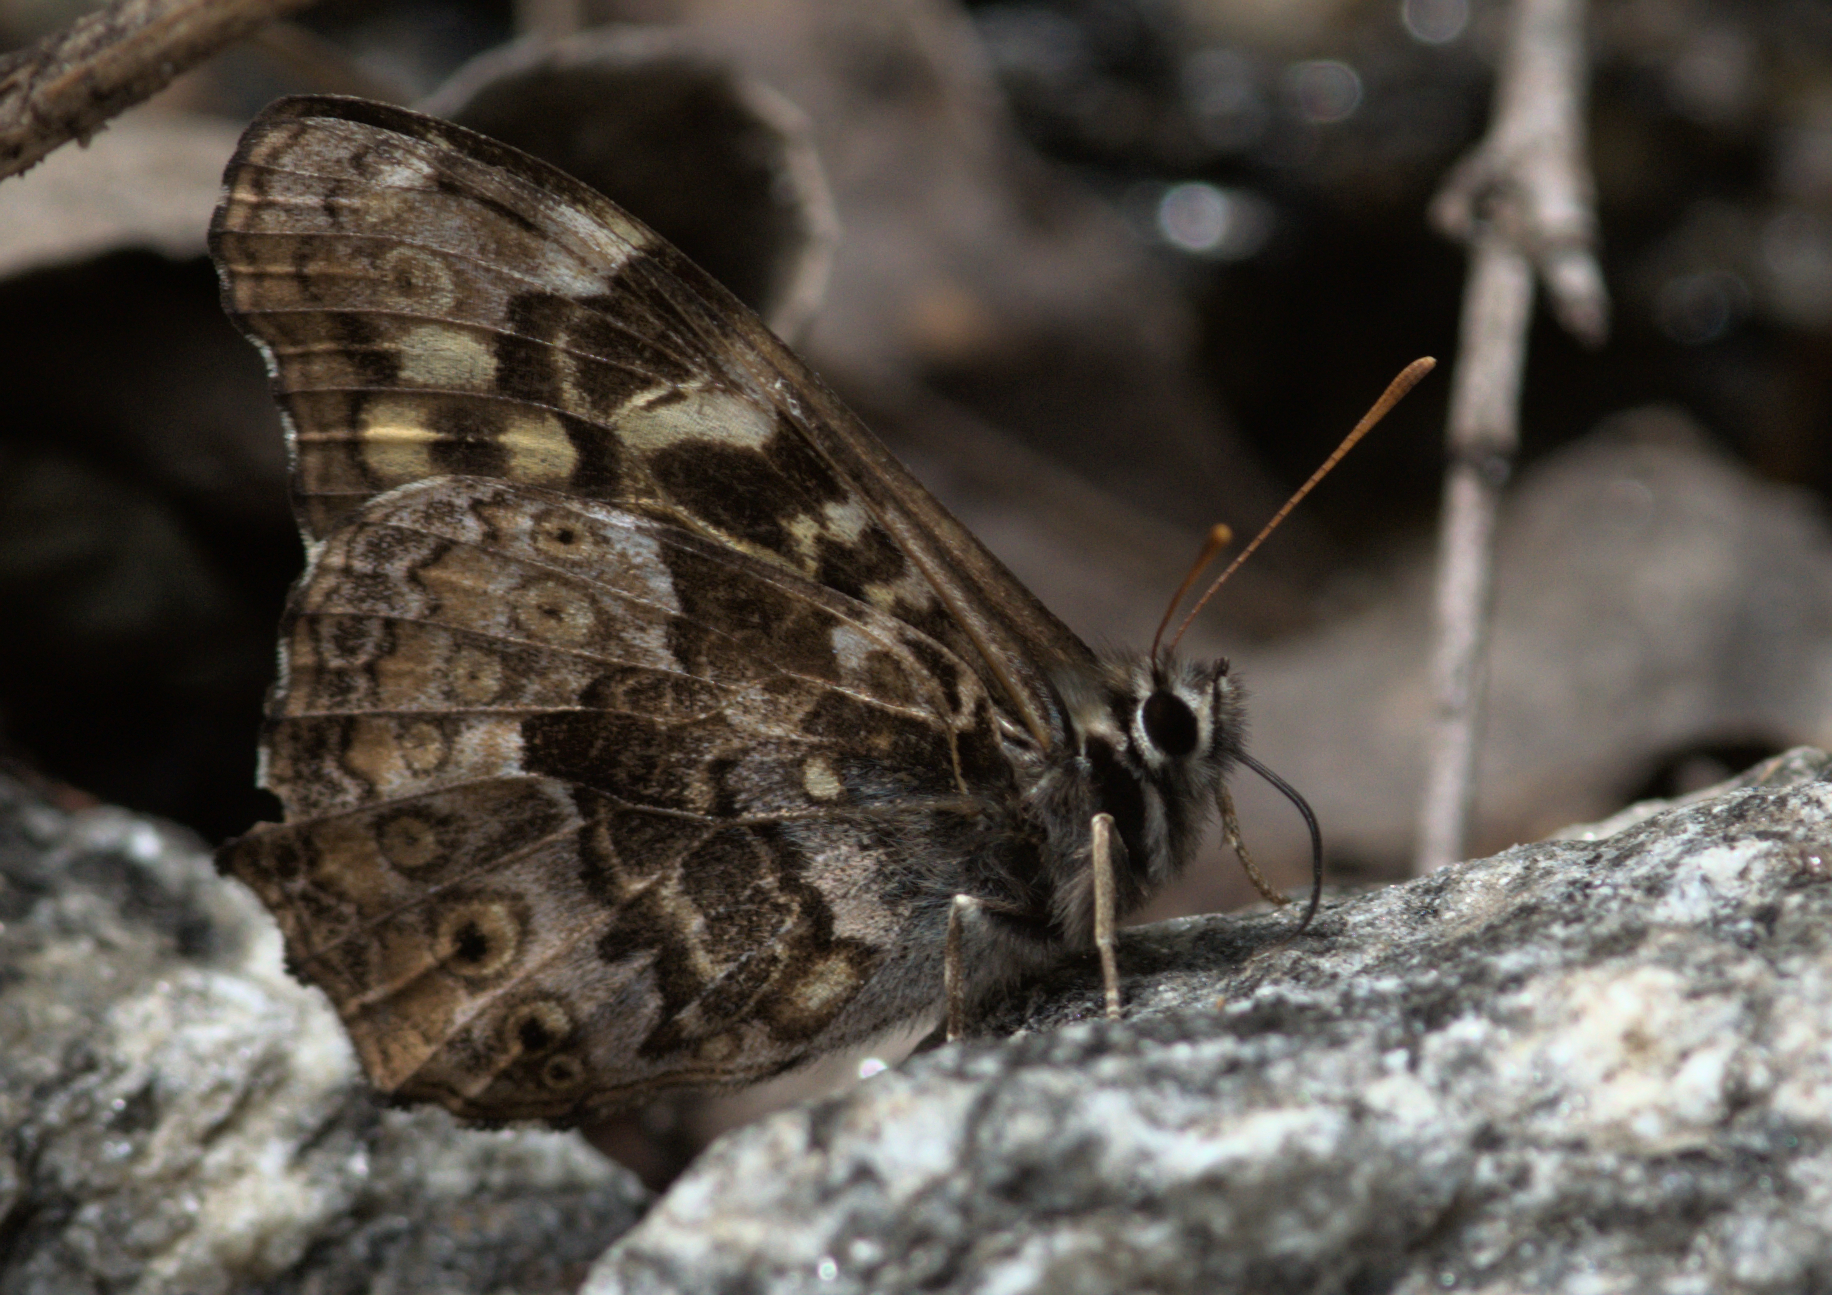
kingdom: Animalia
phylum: Arthropoda
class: Insecta
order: Lepidoptera
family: Nymphalidae
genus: Neope
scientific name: Neope pulaha
